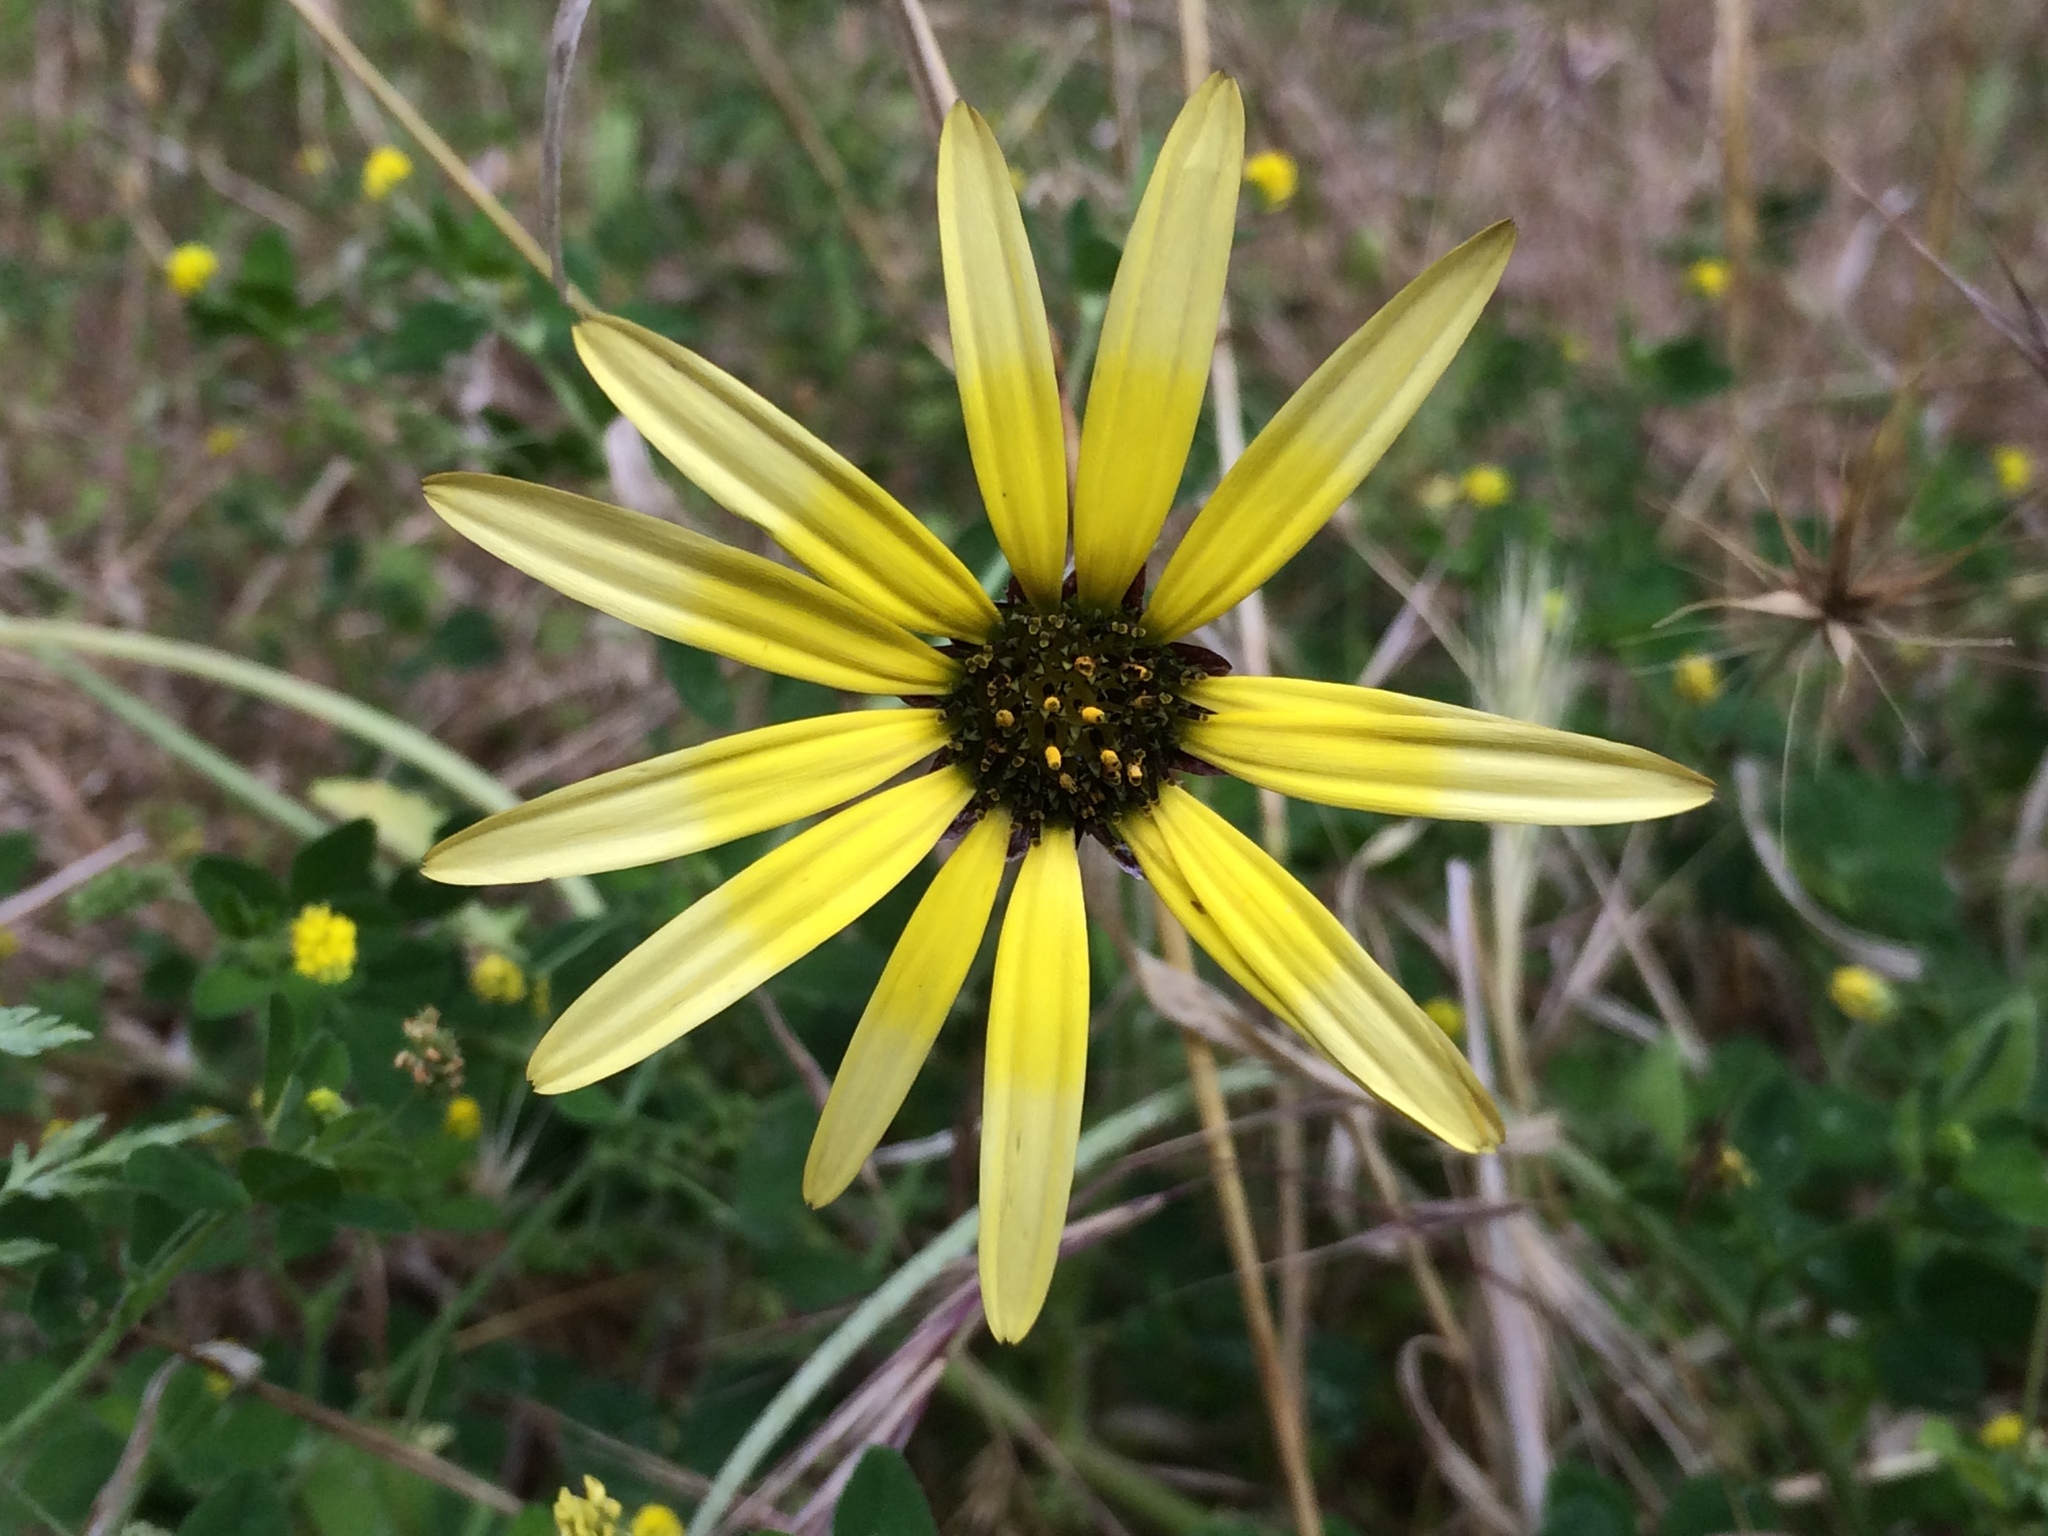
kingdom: Plantae
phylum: Tracheophyta
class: Magnoliopsida
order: Asterales
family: Asteraceae
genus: Arctotheca
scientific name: Arctotheca calendula
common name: Capeweed
